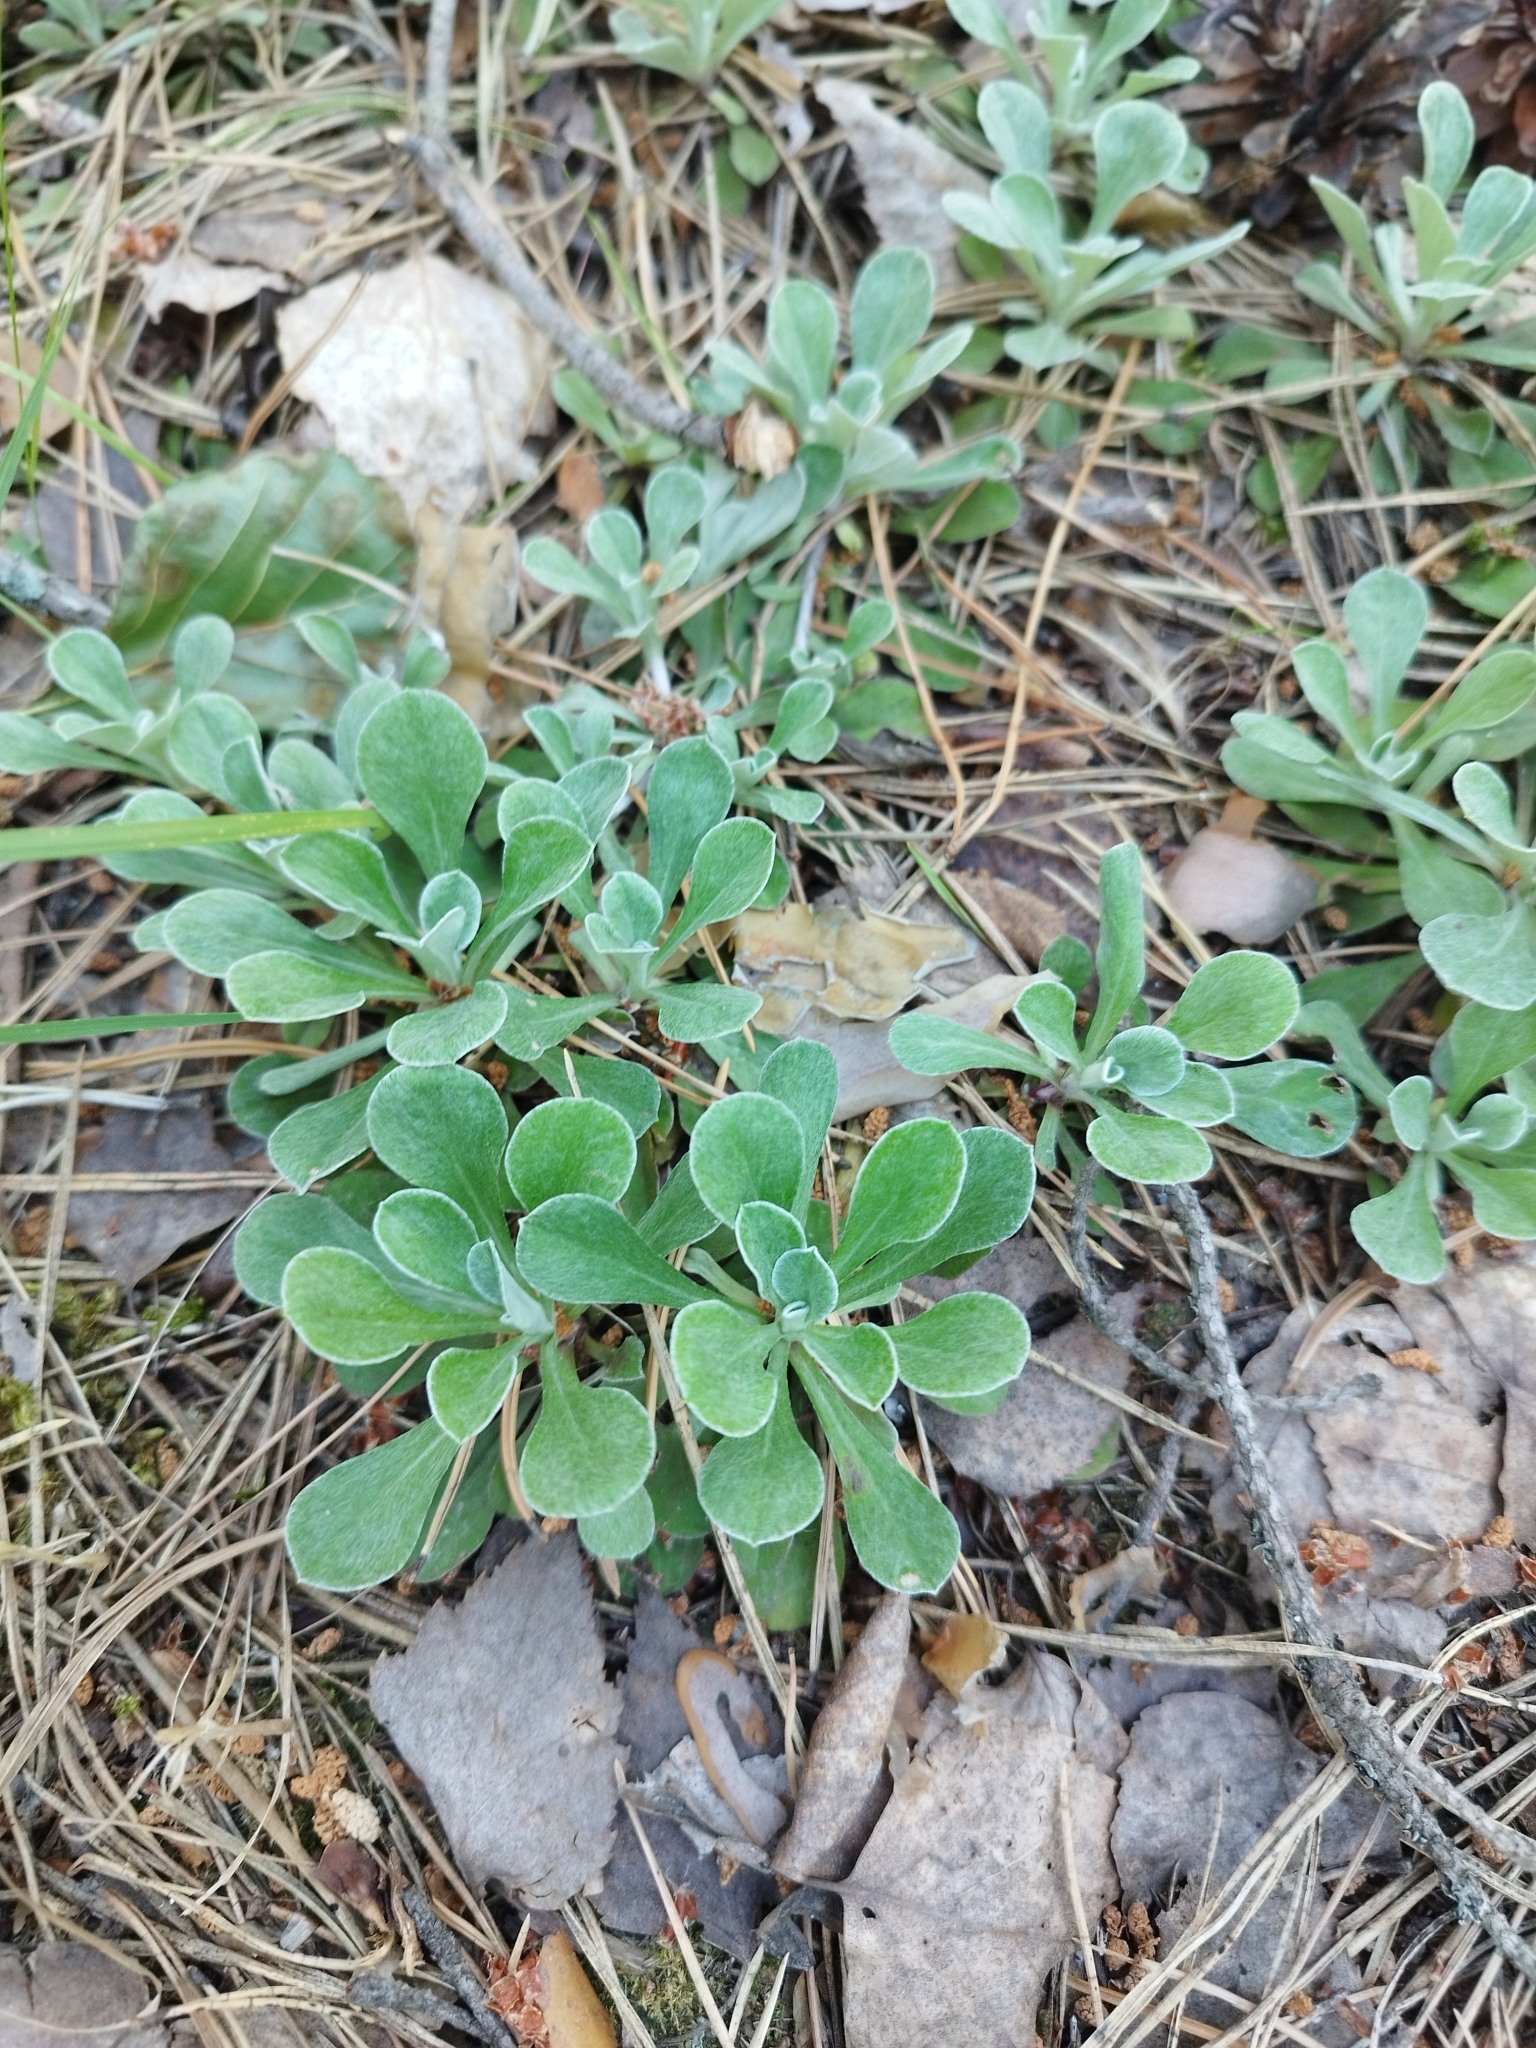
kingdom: Plantae
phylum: Tracheophyta
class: Magnoliopsida
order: Asterales
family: Asteraceae
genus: Antennaria
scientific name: Antennaria dioica
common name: Mountain everlasting
